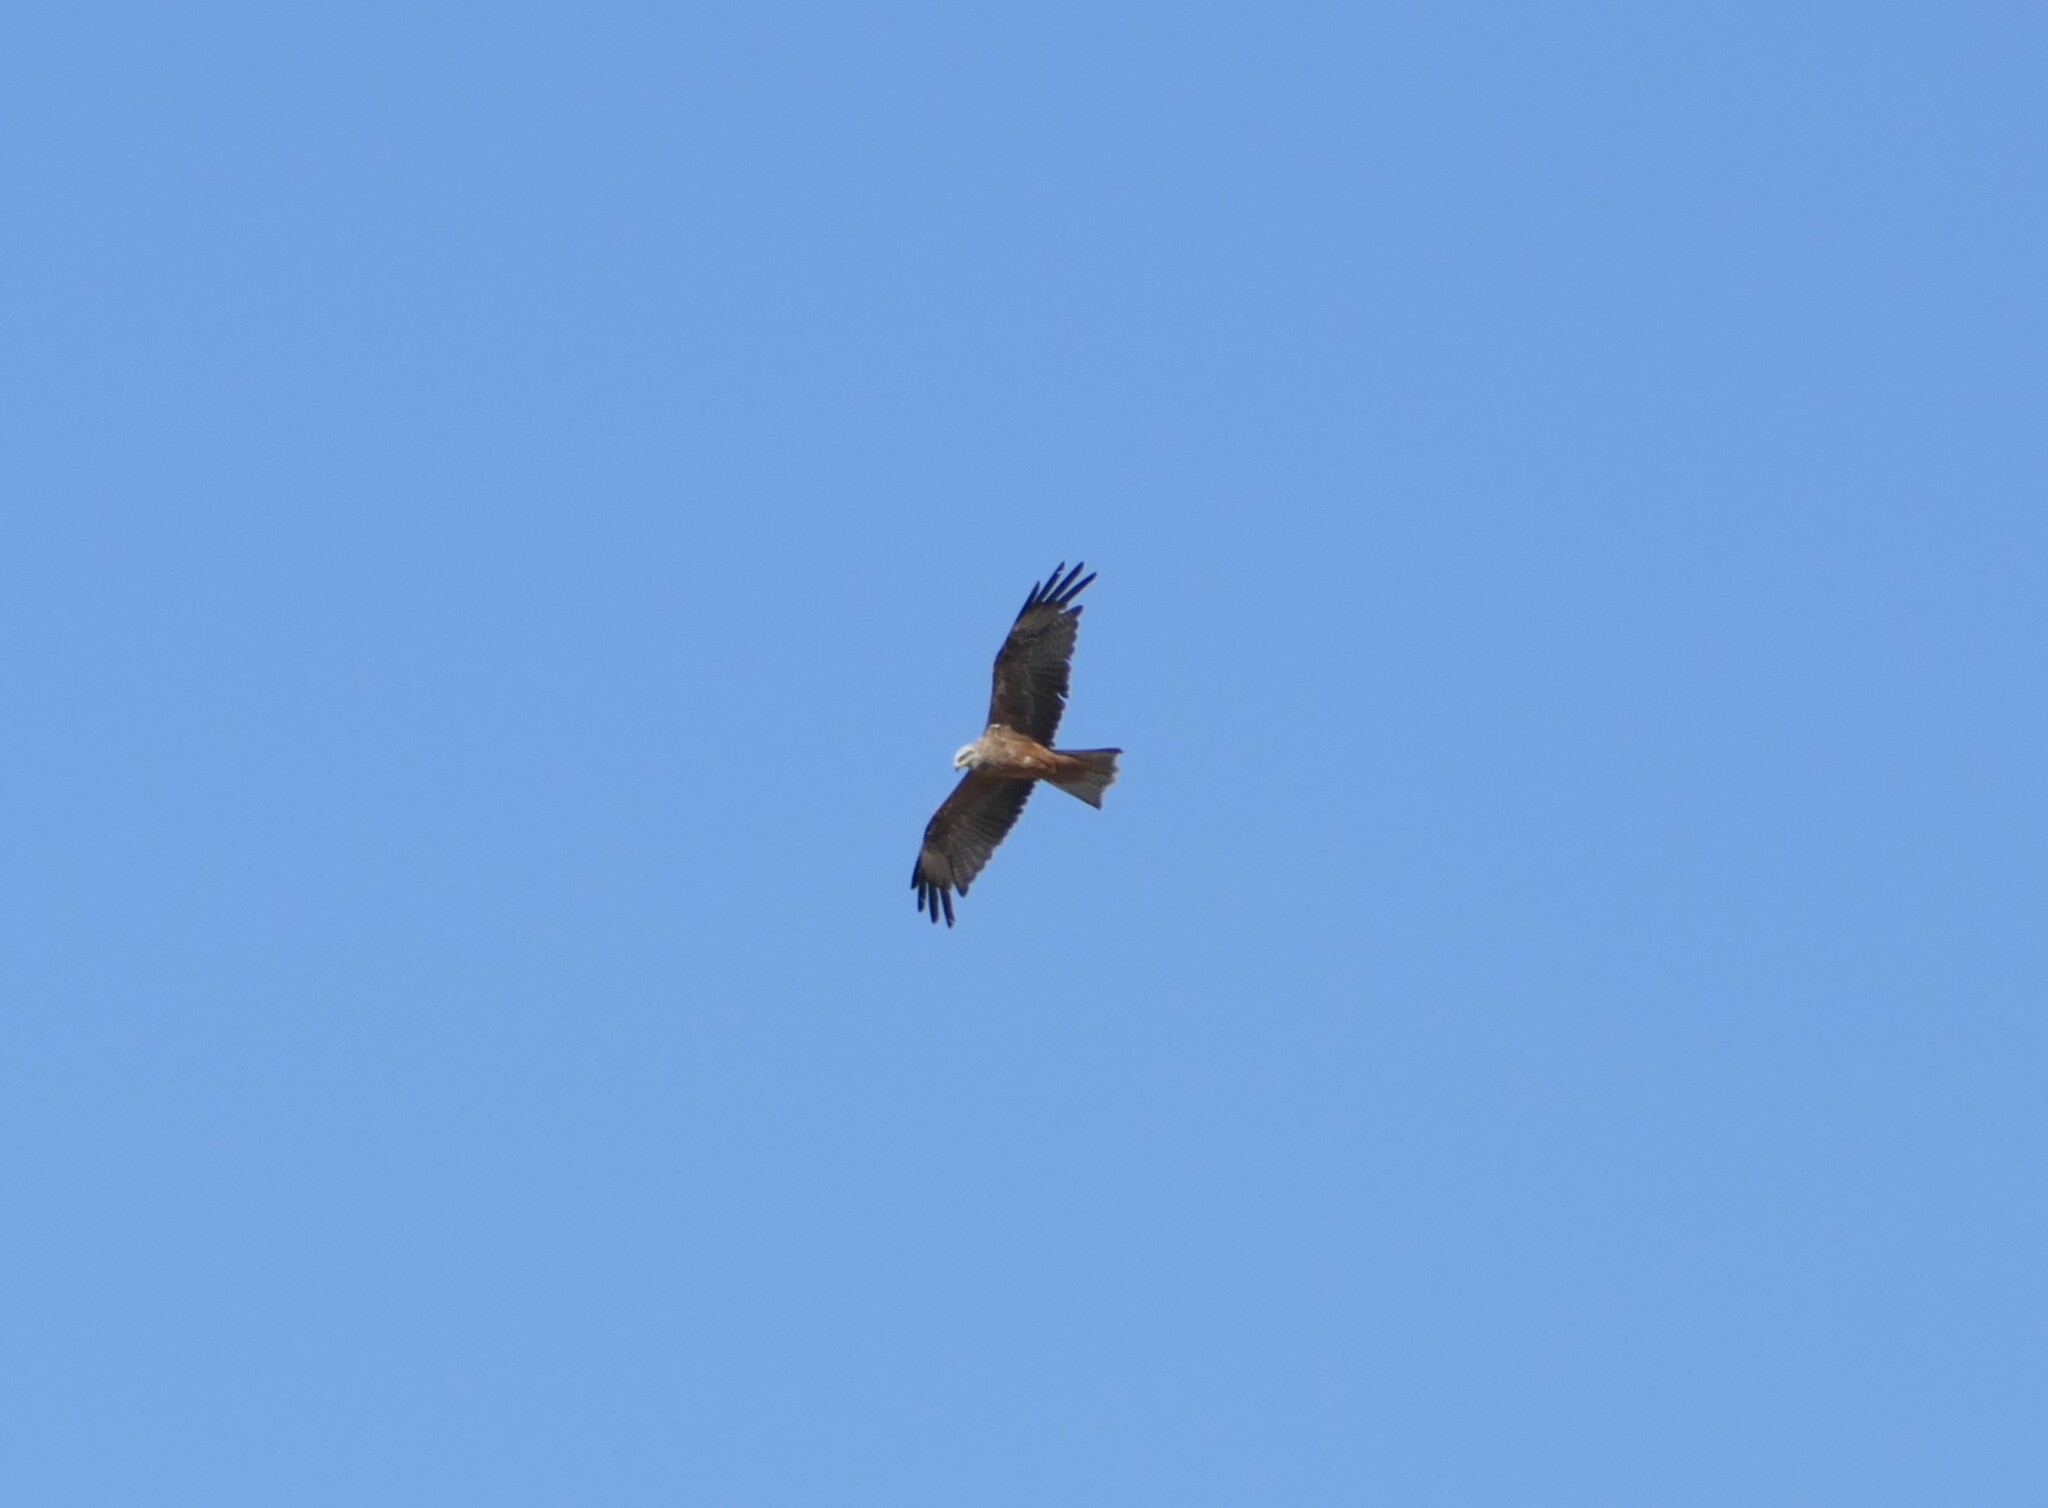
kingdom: Animalia
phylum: Chordata
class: Aves
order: Accipitriformes
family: Accipitridae
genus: Milvus
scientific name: Milvus migrans
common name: Black kite
